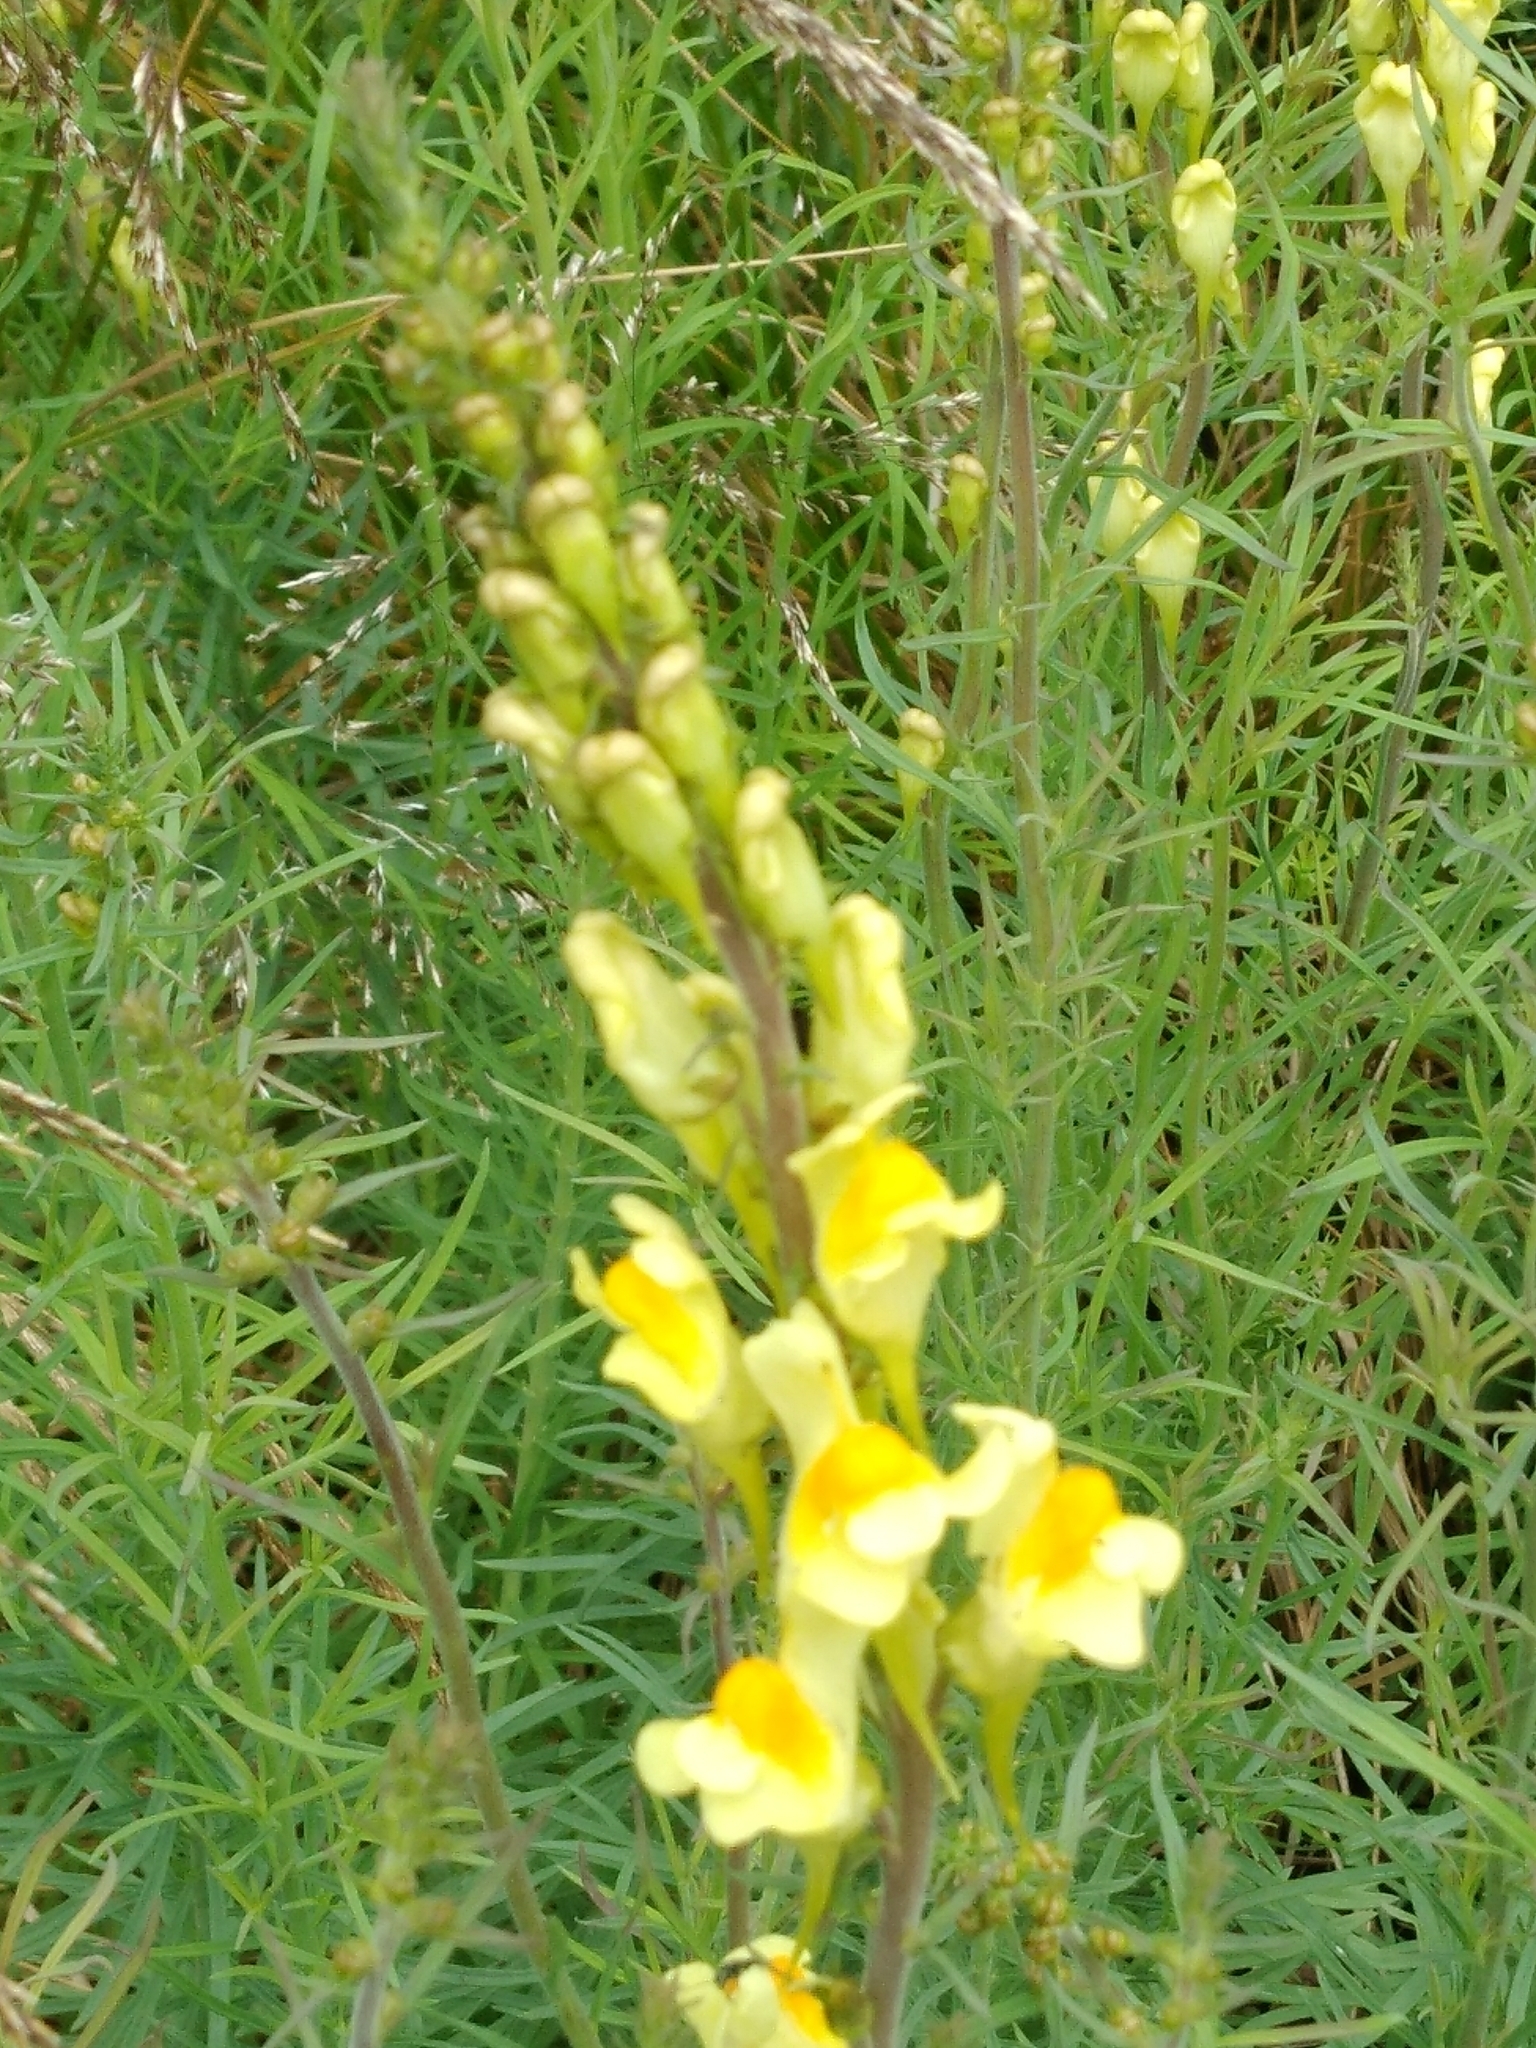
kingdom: Plantae
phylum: Tracheophyta
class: Magnoliopsida
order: Lamiales
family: Plantaginaceae
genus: Linaria
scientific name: Linaria vulgaris
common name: Butter and eggs
